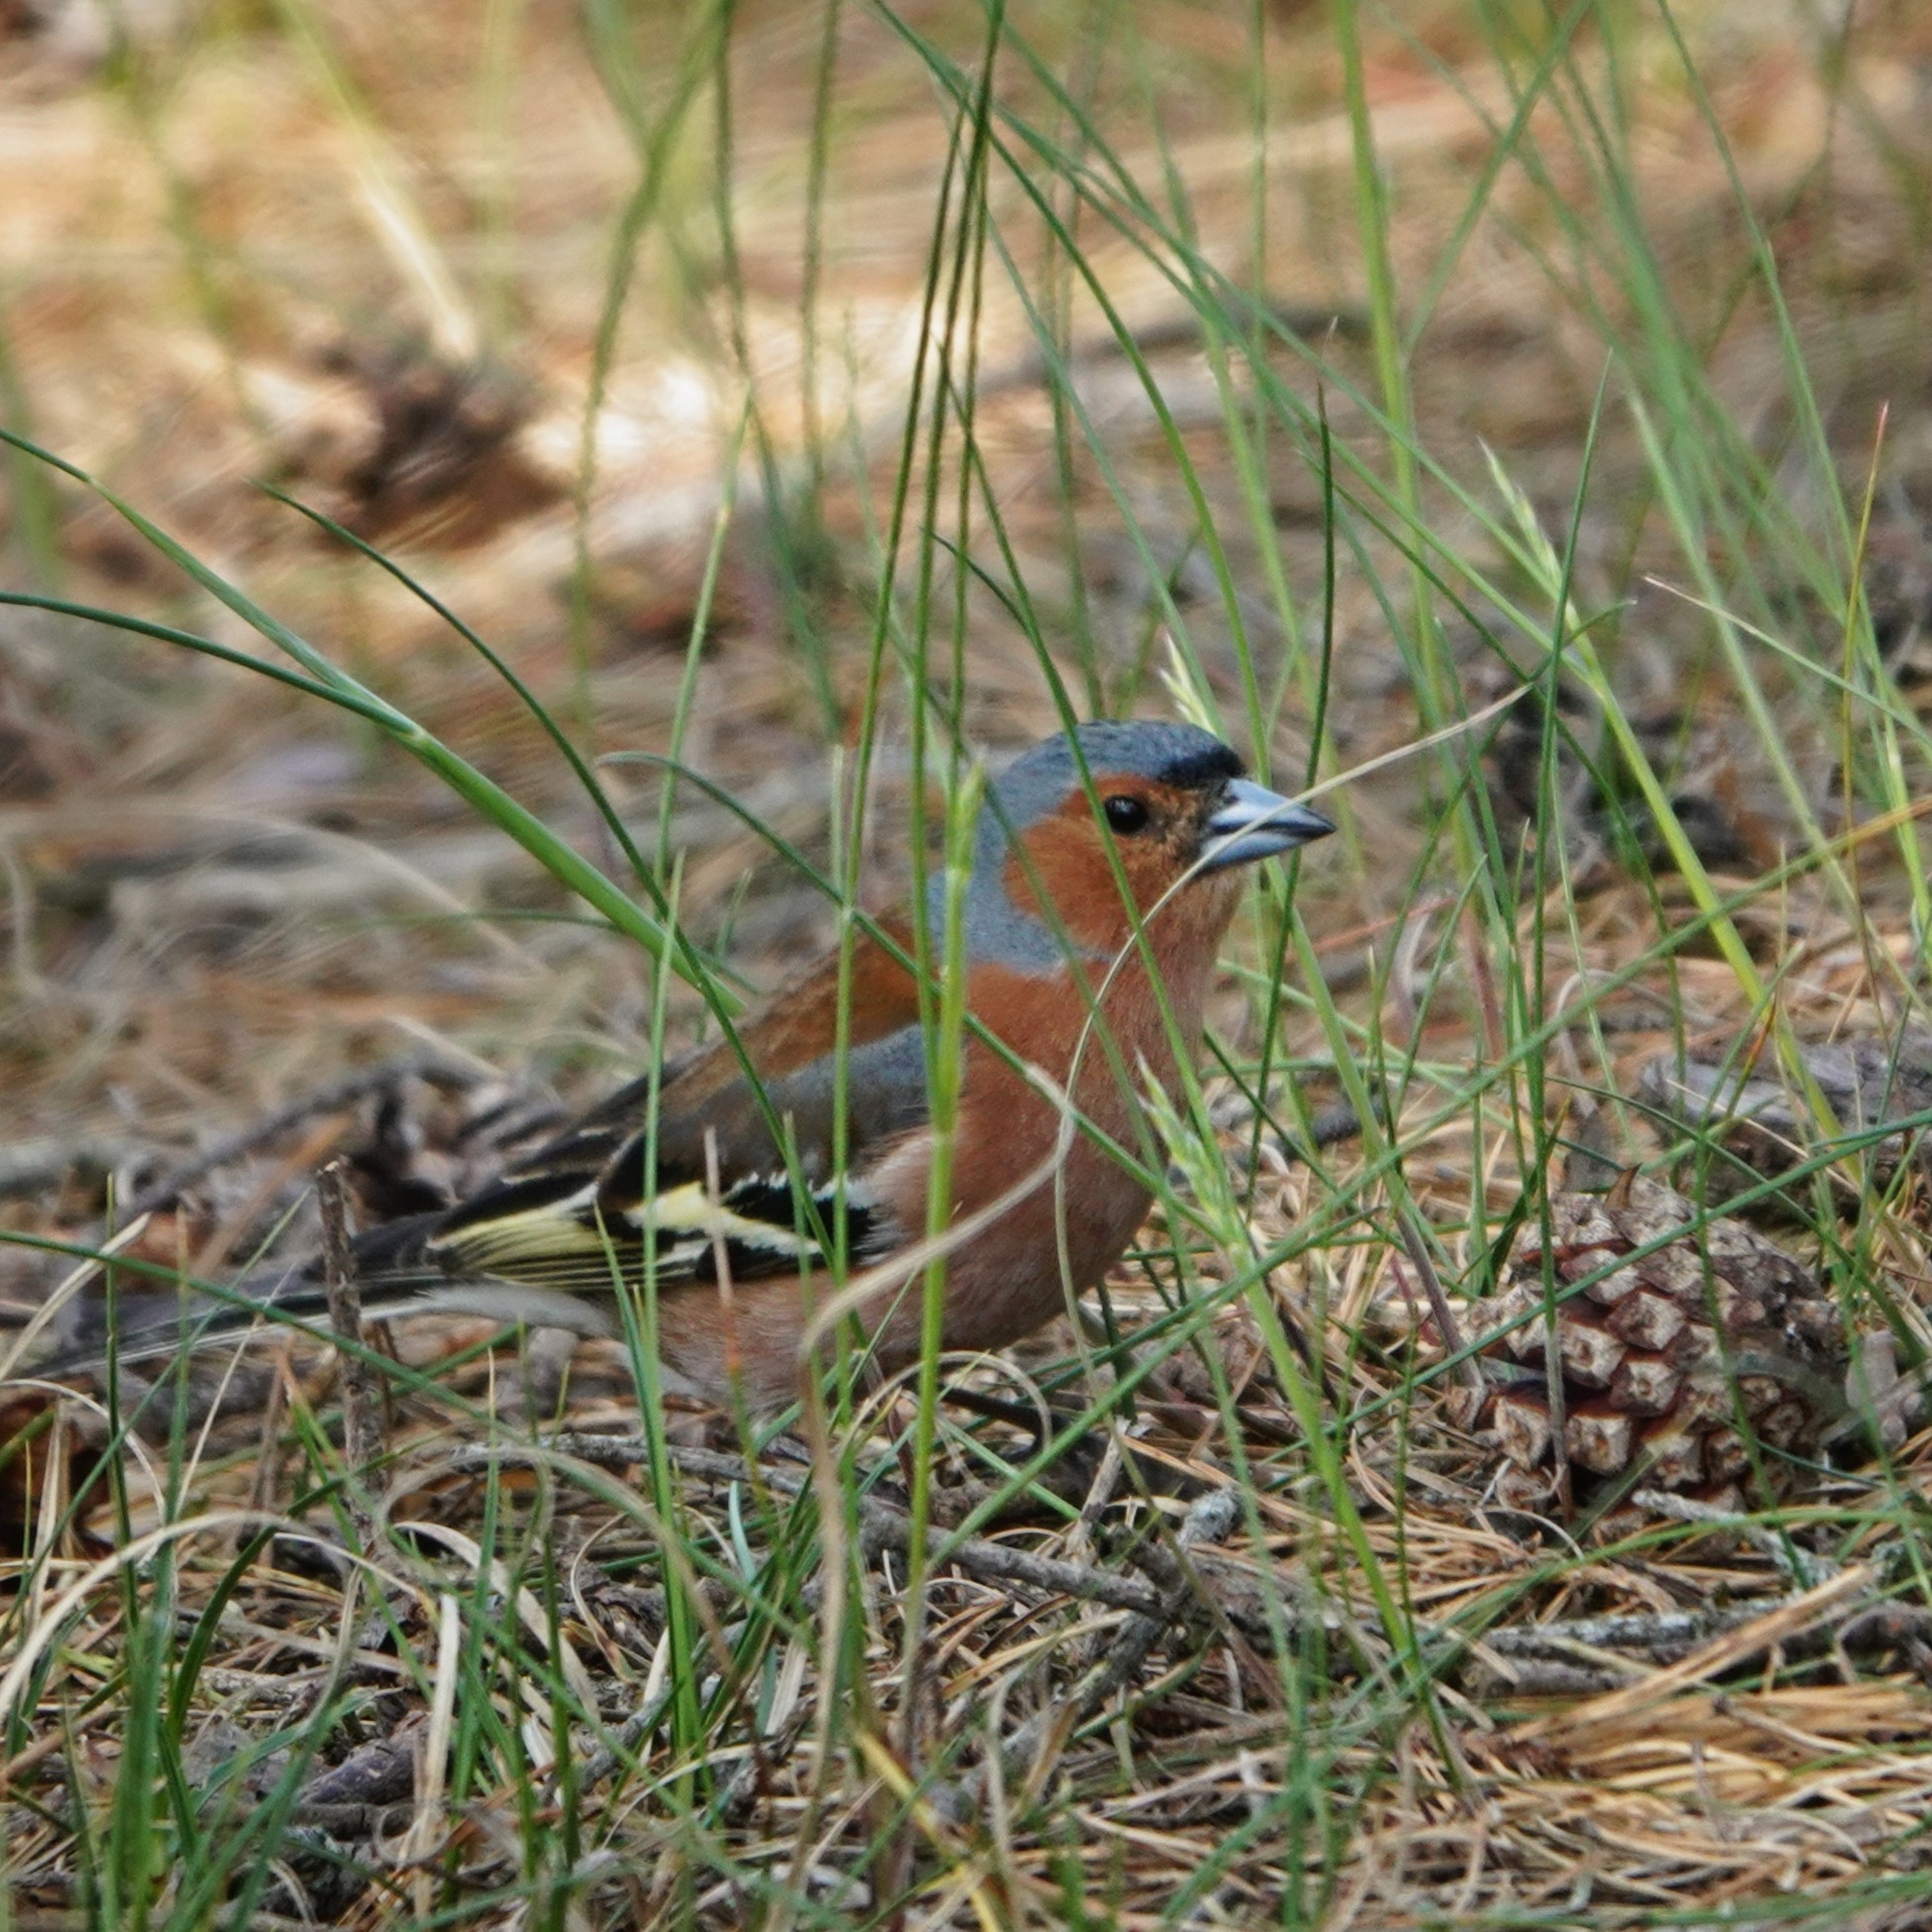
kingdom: Animalia
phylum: Chordata
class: Aves
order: Passeriformes
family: Fringillidae
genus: Fringilla
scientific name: Fringilla coelebs
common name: Common chaffinch
